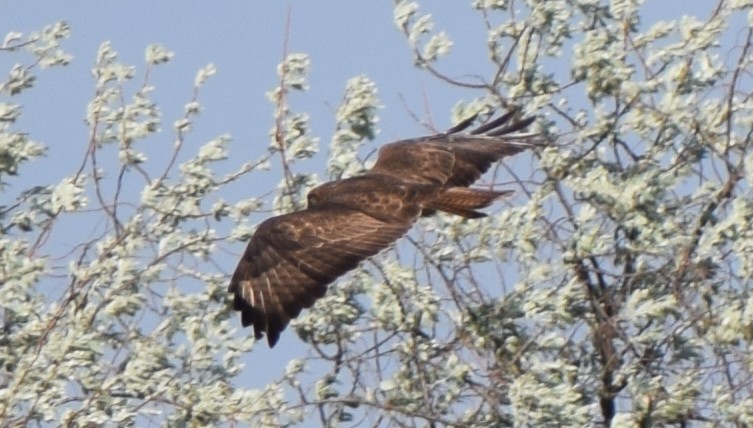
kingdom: Animalia
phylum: Chordata
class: Aves
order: Accipitriformes
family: Accipitridae
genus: Buteo
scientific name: Buteo buteo
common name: Common buzzard
